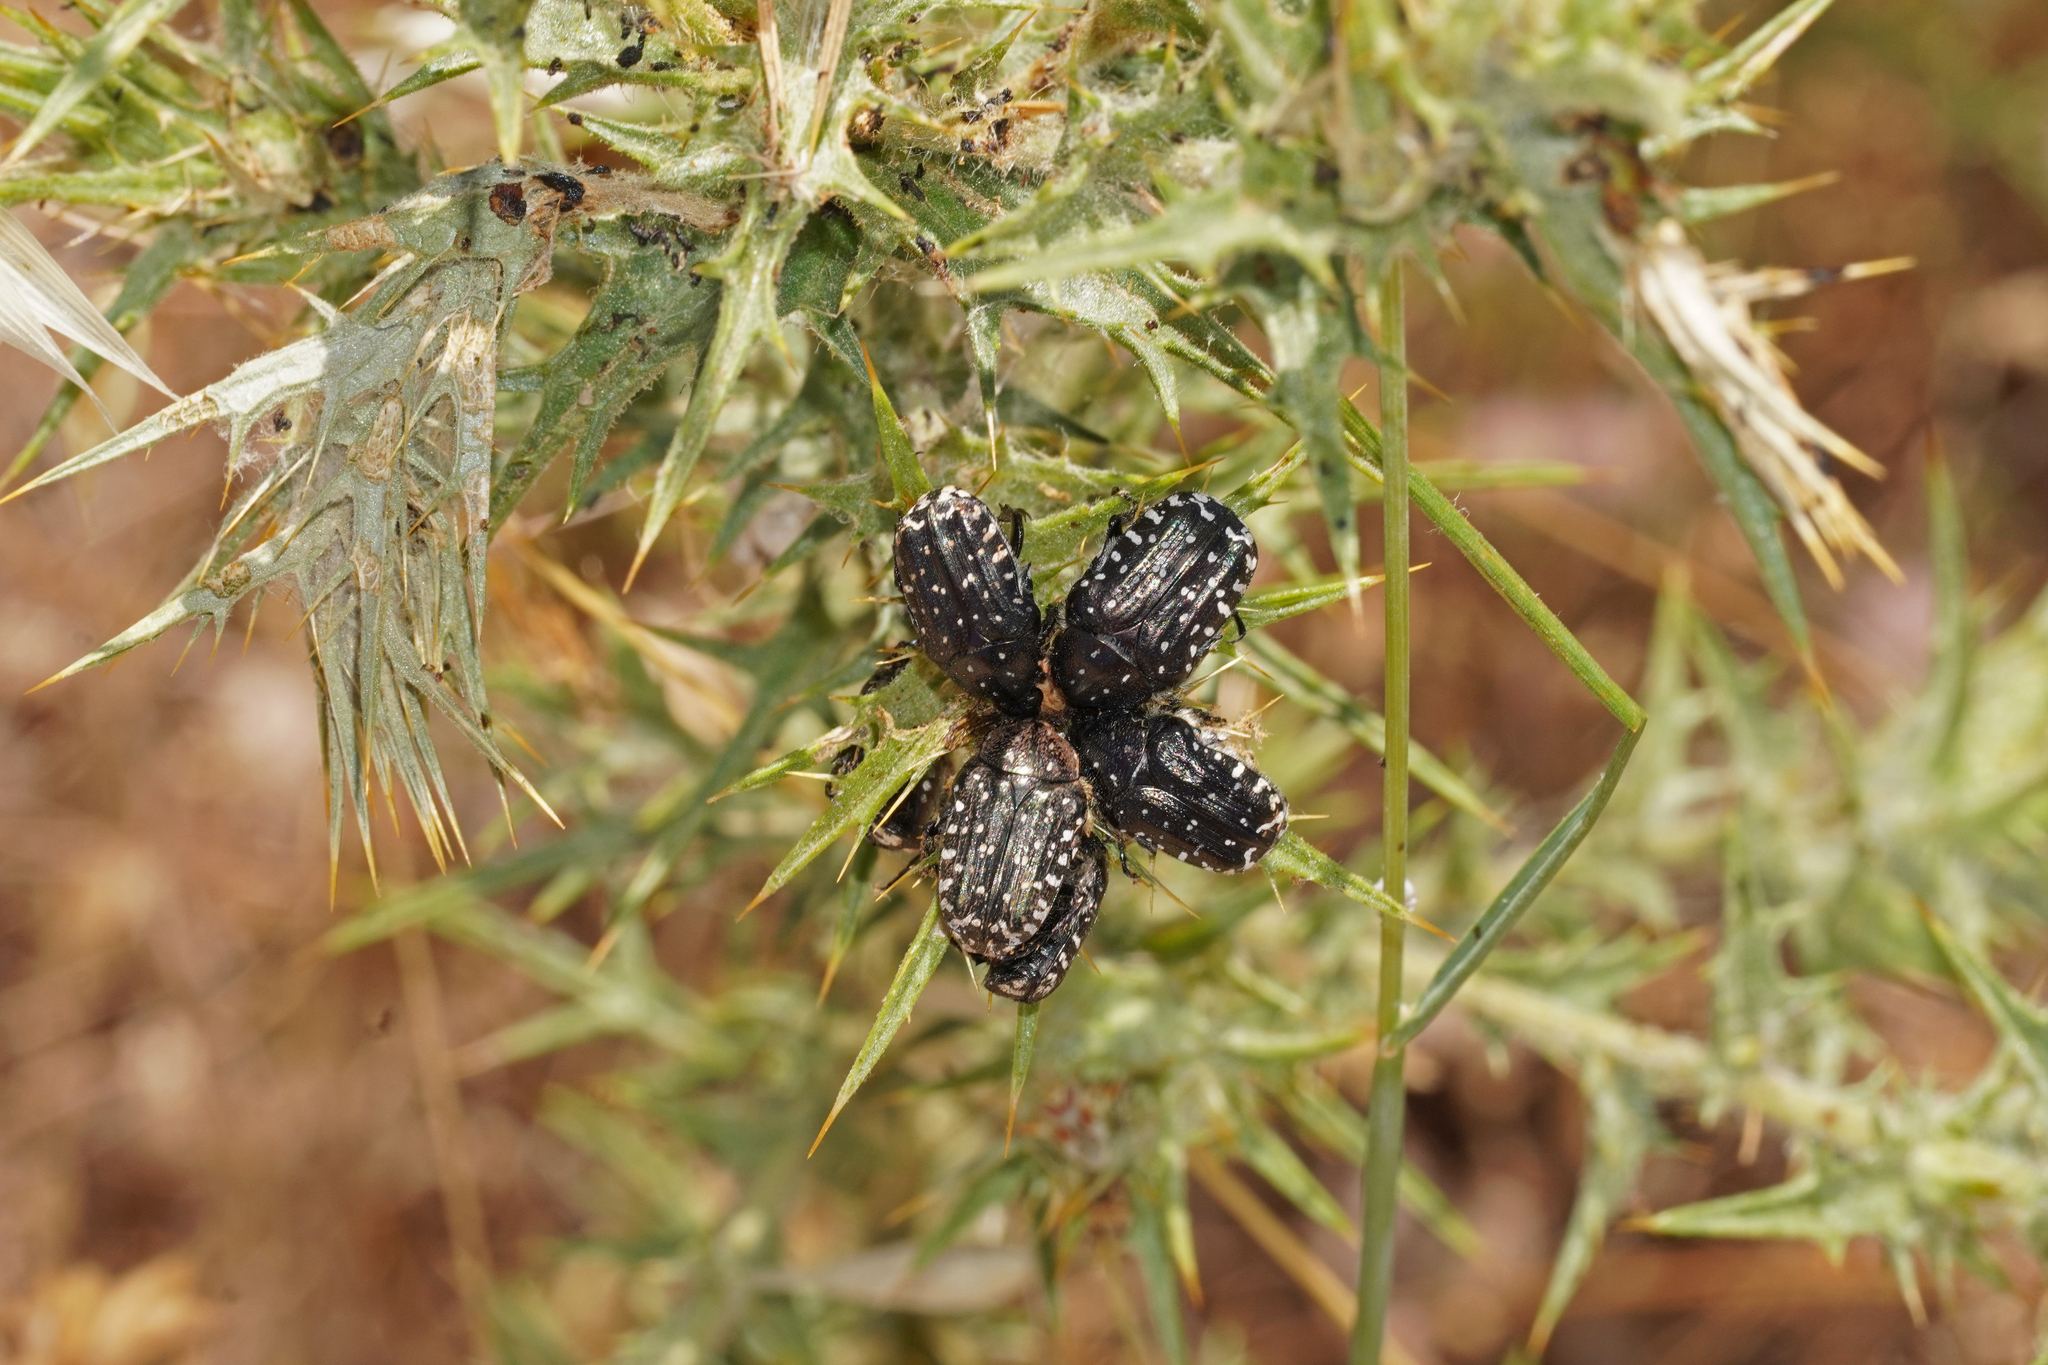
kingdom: Animalia
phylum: Arthropoda
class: Insecta
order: Coleoptera
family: Scarabaeidae
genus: Oxythyrea
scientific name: Oxythyrea funesta
